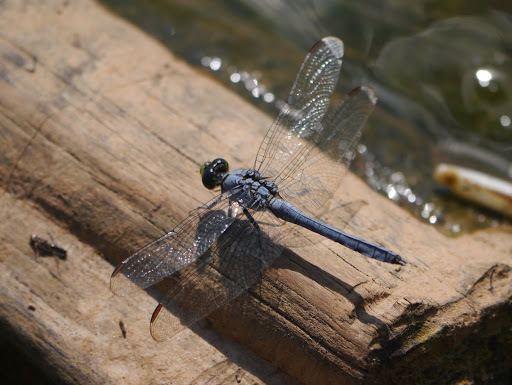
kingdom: Animalia
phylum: Arthropoda
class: Insecta
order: Odonata
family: Libellulidae
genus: Erythemis
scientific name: Erythemis simplicicollis
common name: Eastern pondhawk
